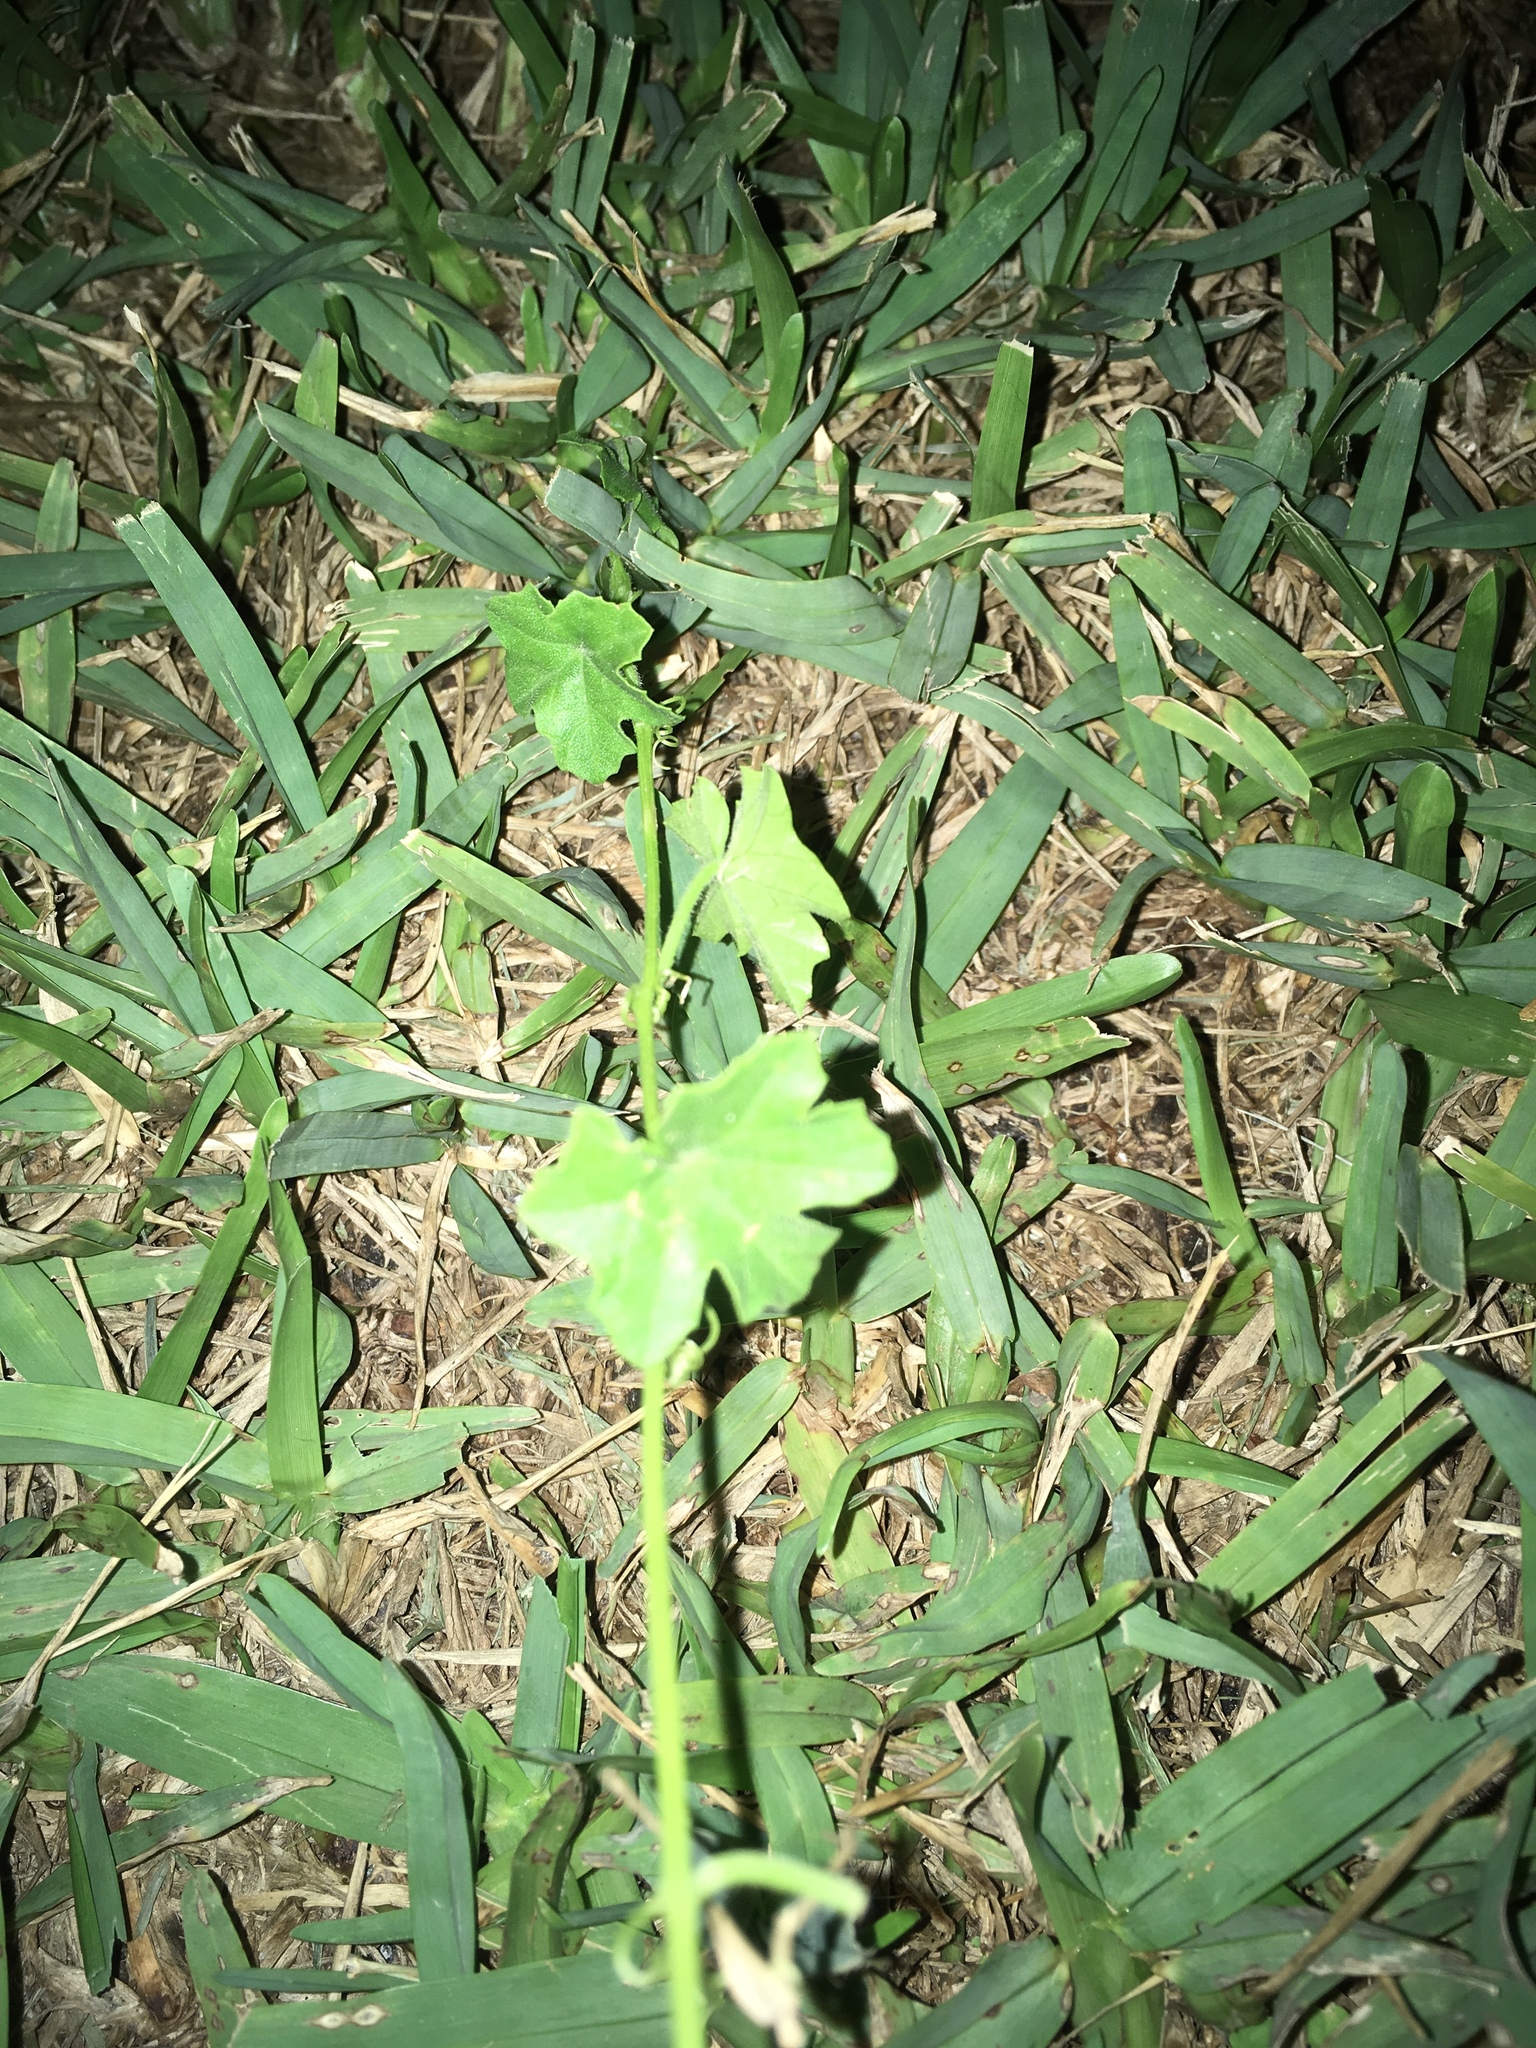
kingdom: Plantae
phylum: Tracheophyta
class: Magnoliopsida
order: Cucurbitales
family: Cucurbitaceae
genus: Melothria
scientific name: Melothria pendula
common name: Creeping-cucumber
